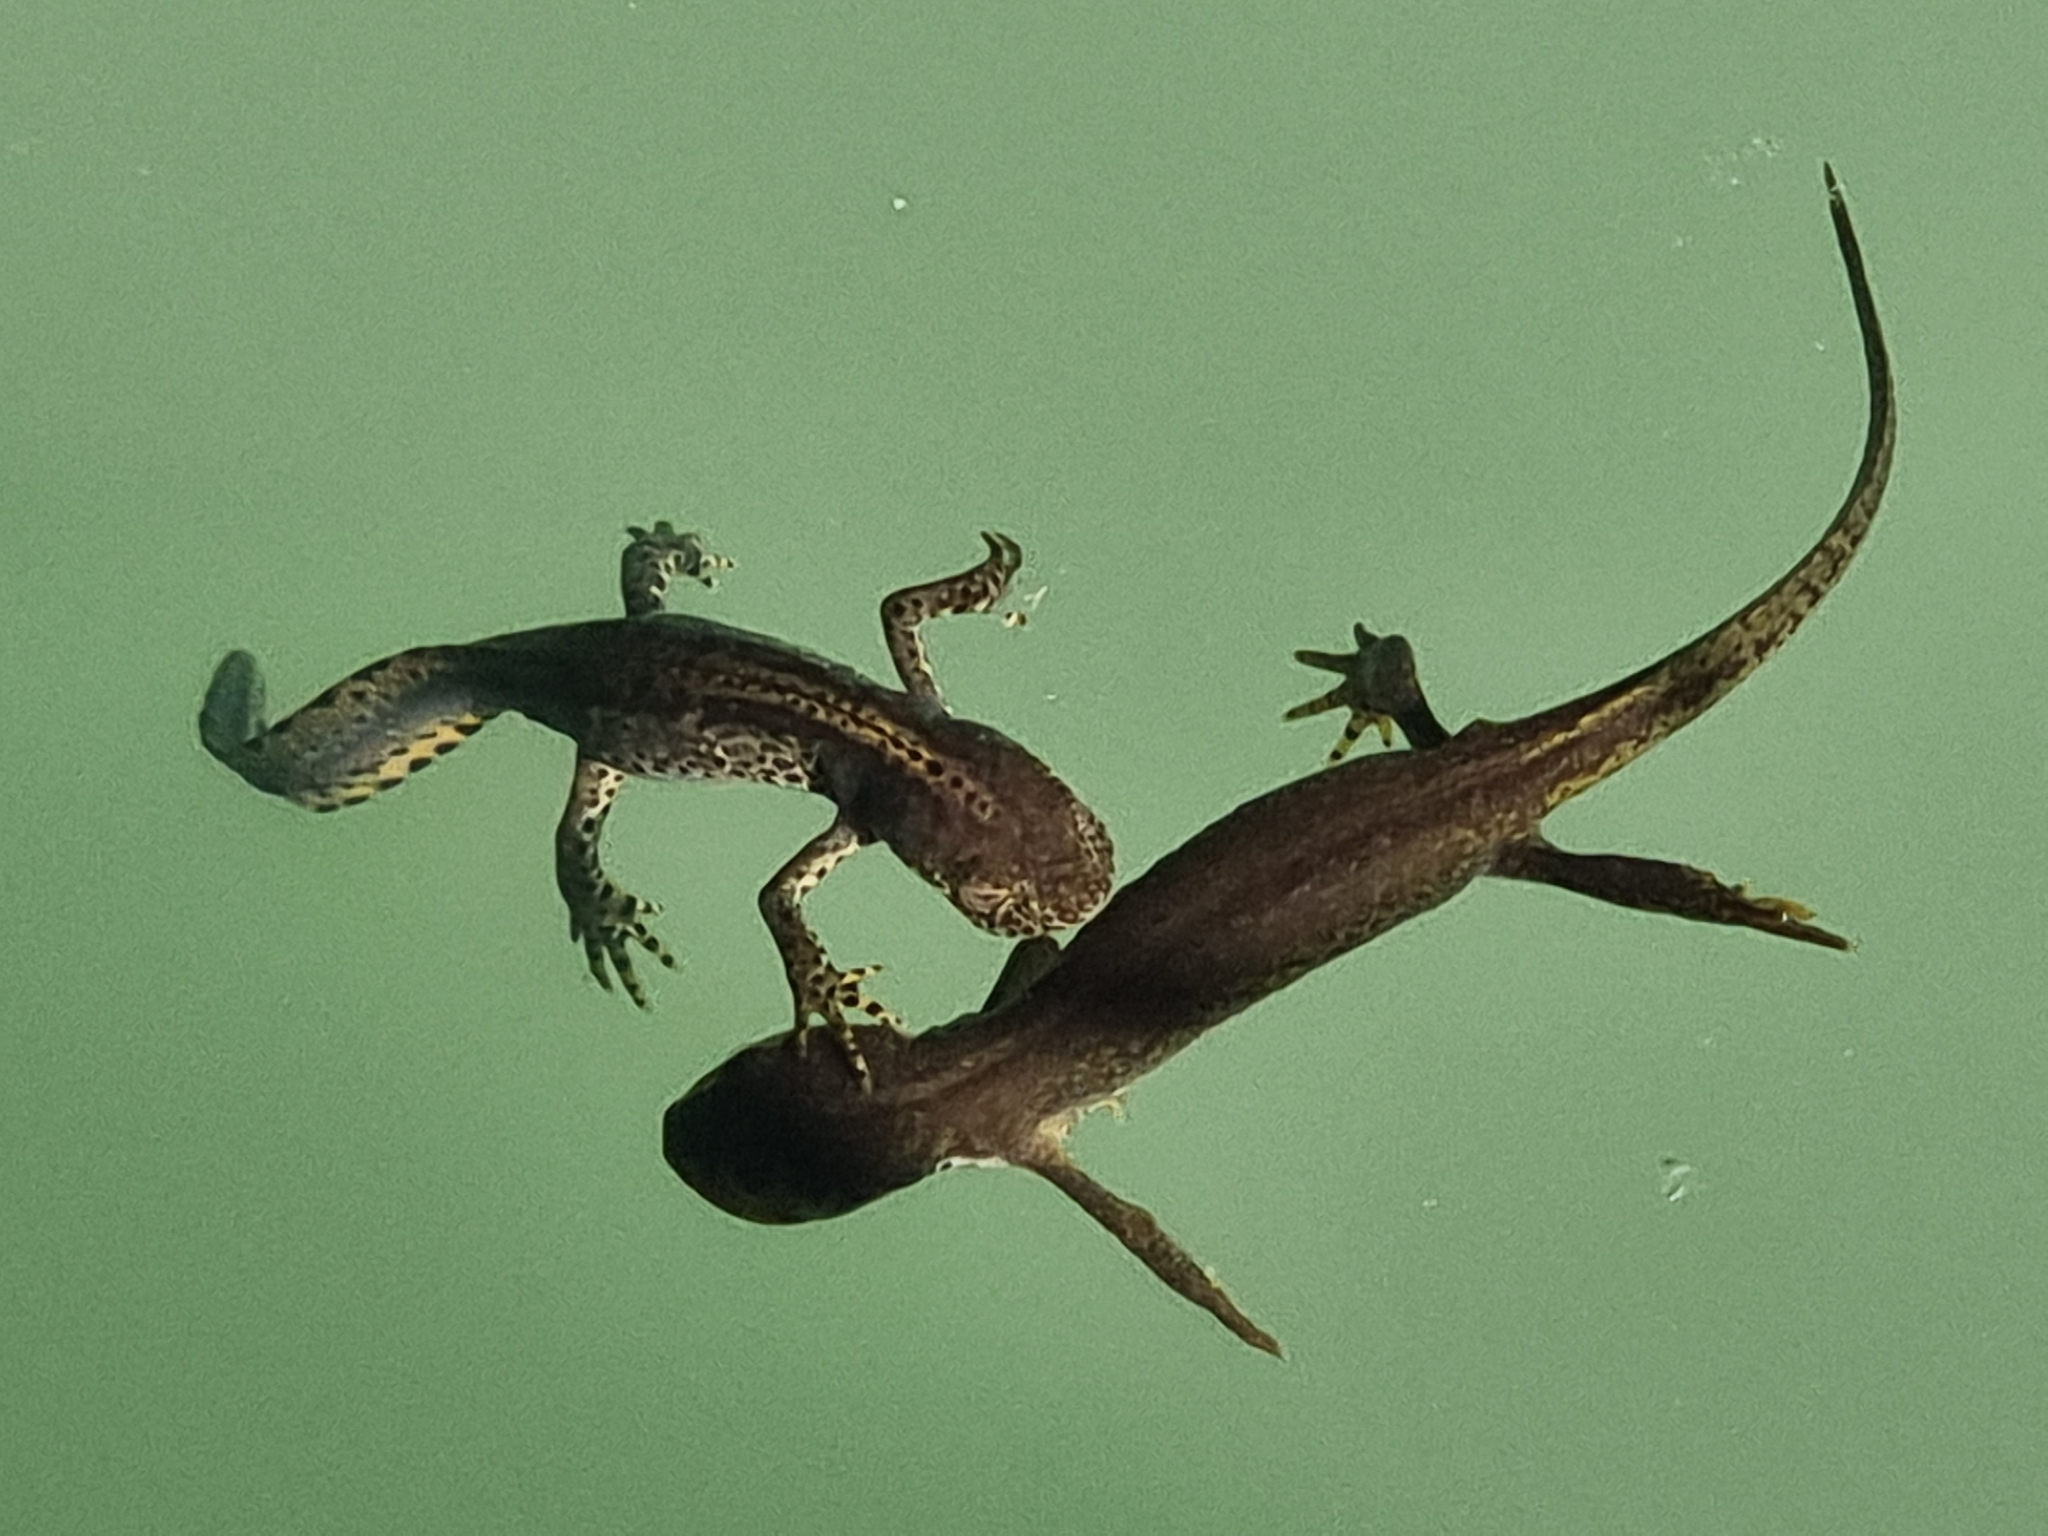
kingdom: Animalia
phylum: Chordata
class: Amphibia
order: Caudata
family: Salamandridae
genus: Ichthyosaura
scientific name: Ichthyosaura alpestris
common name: Alpine newt
